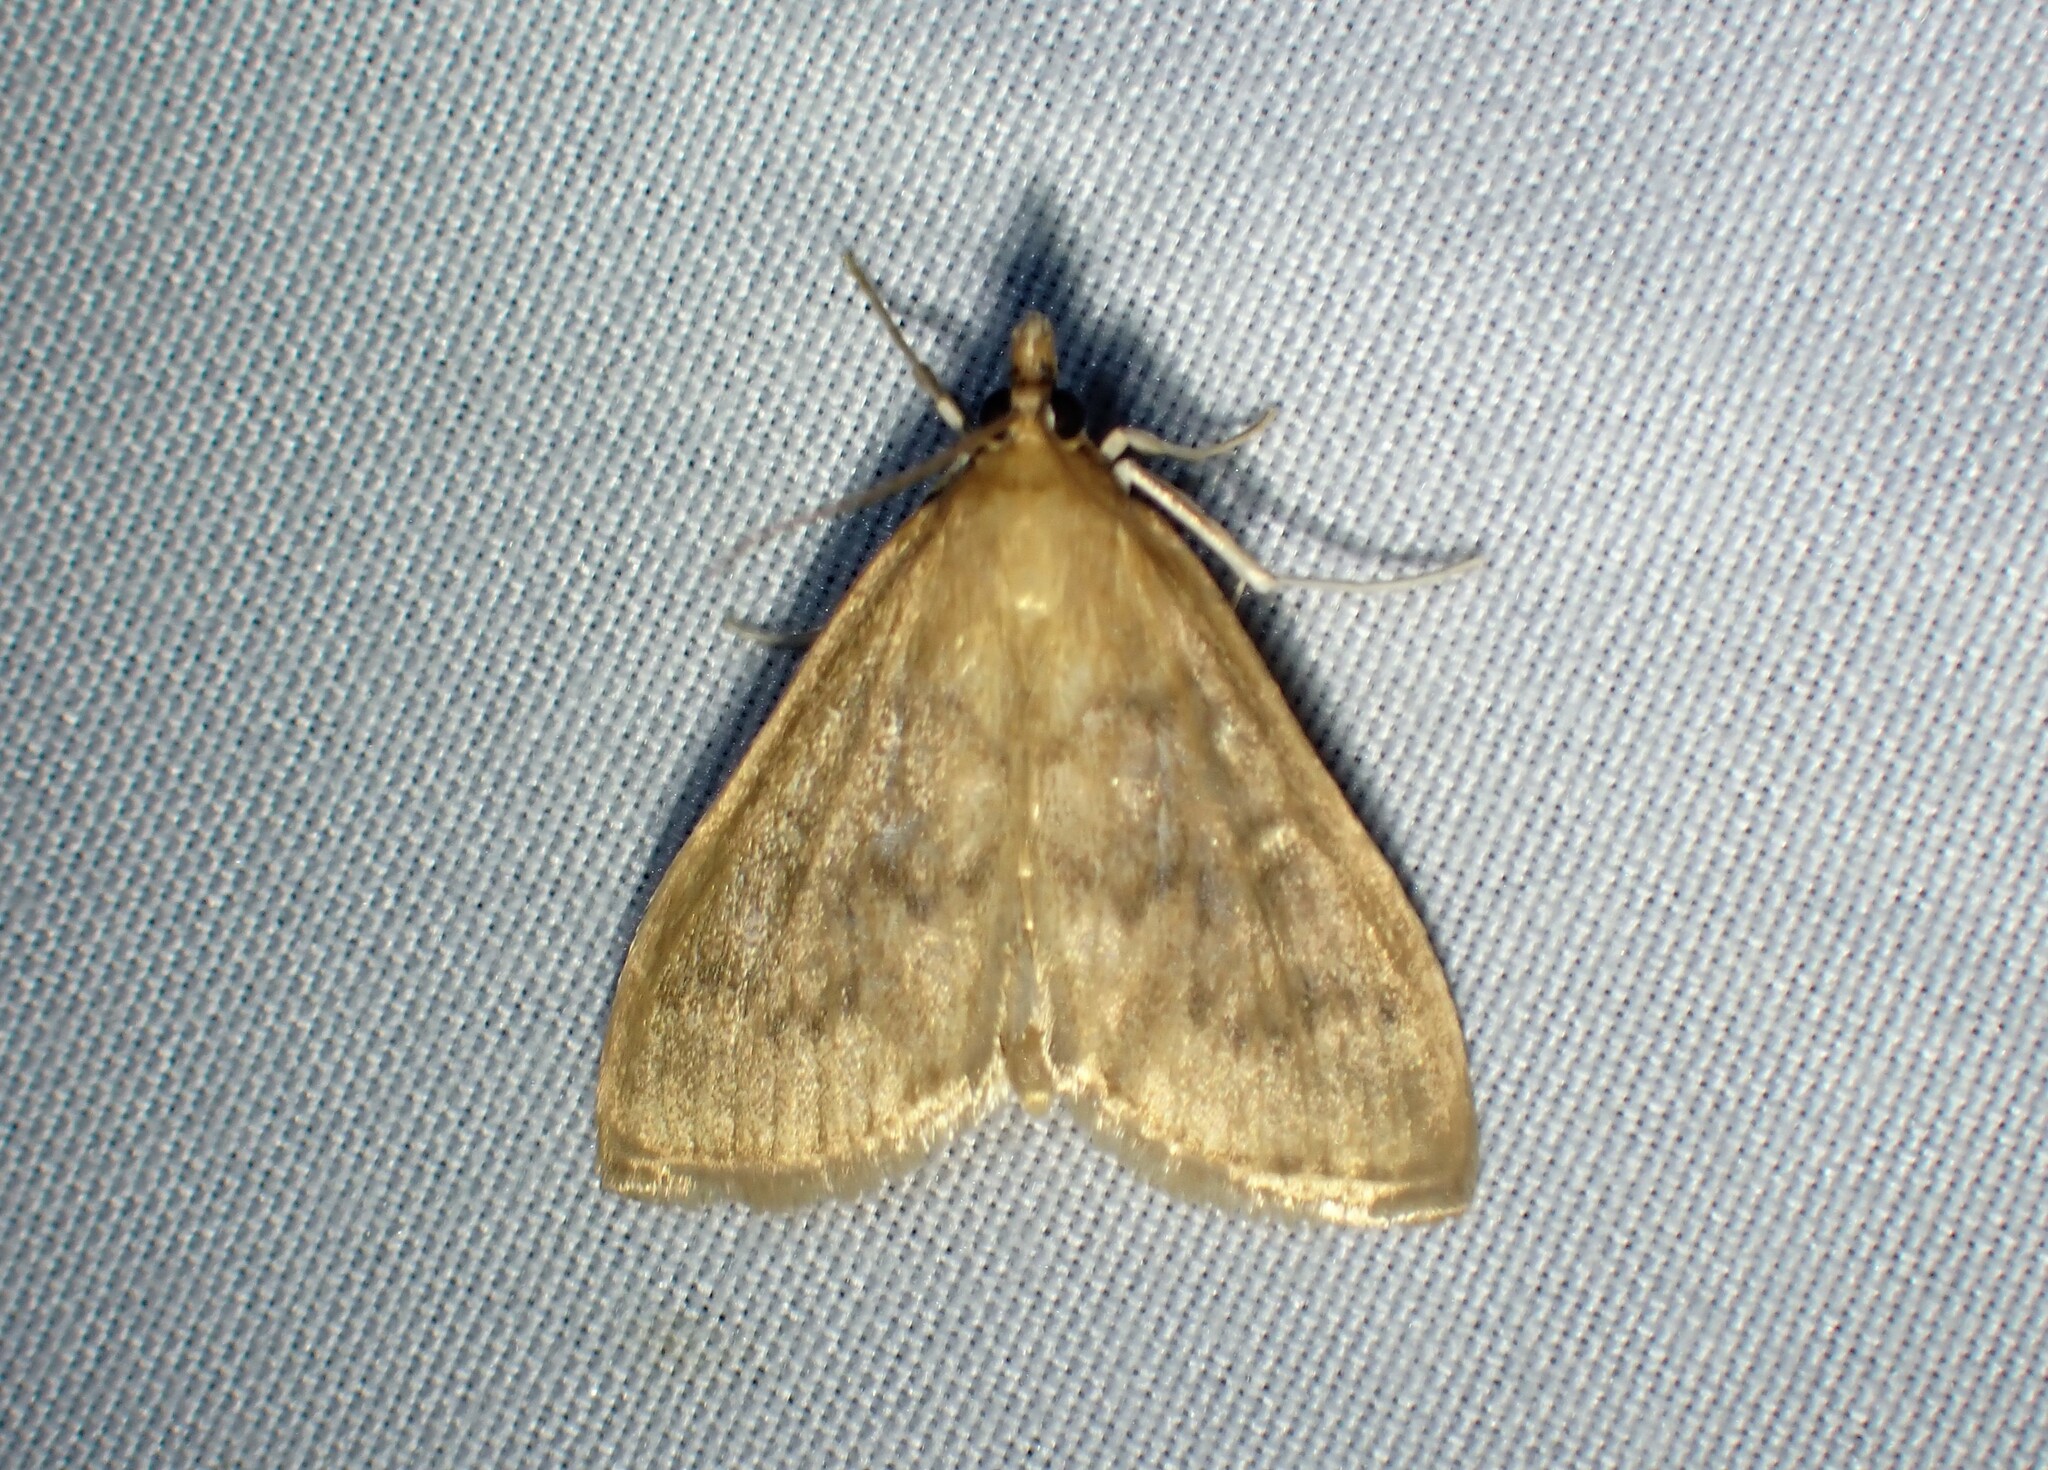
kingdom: Animalia
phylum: Arthropoda
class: Insecta
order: Lepidoptera
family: Crambidae
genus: Anania
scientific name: Anania Framinghamia helvalis
